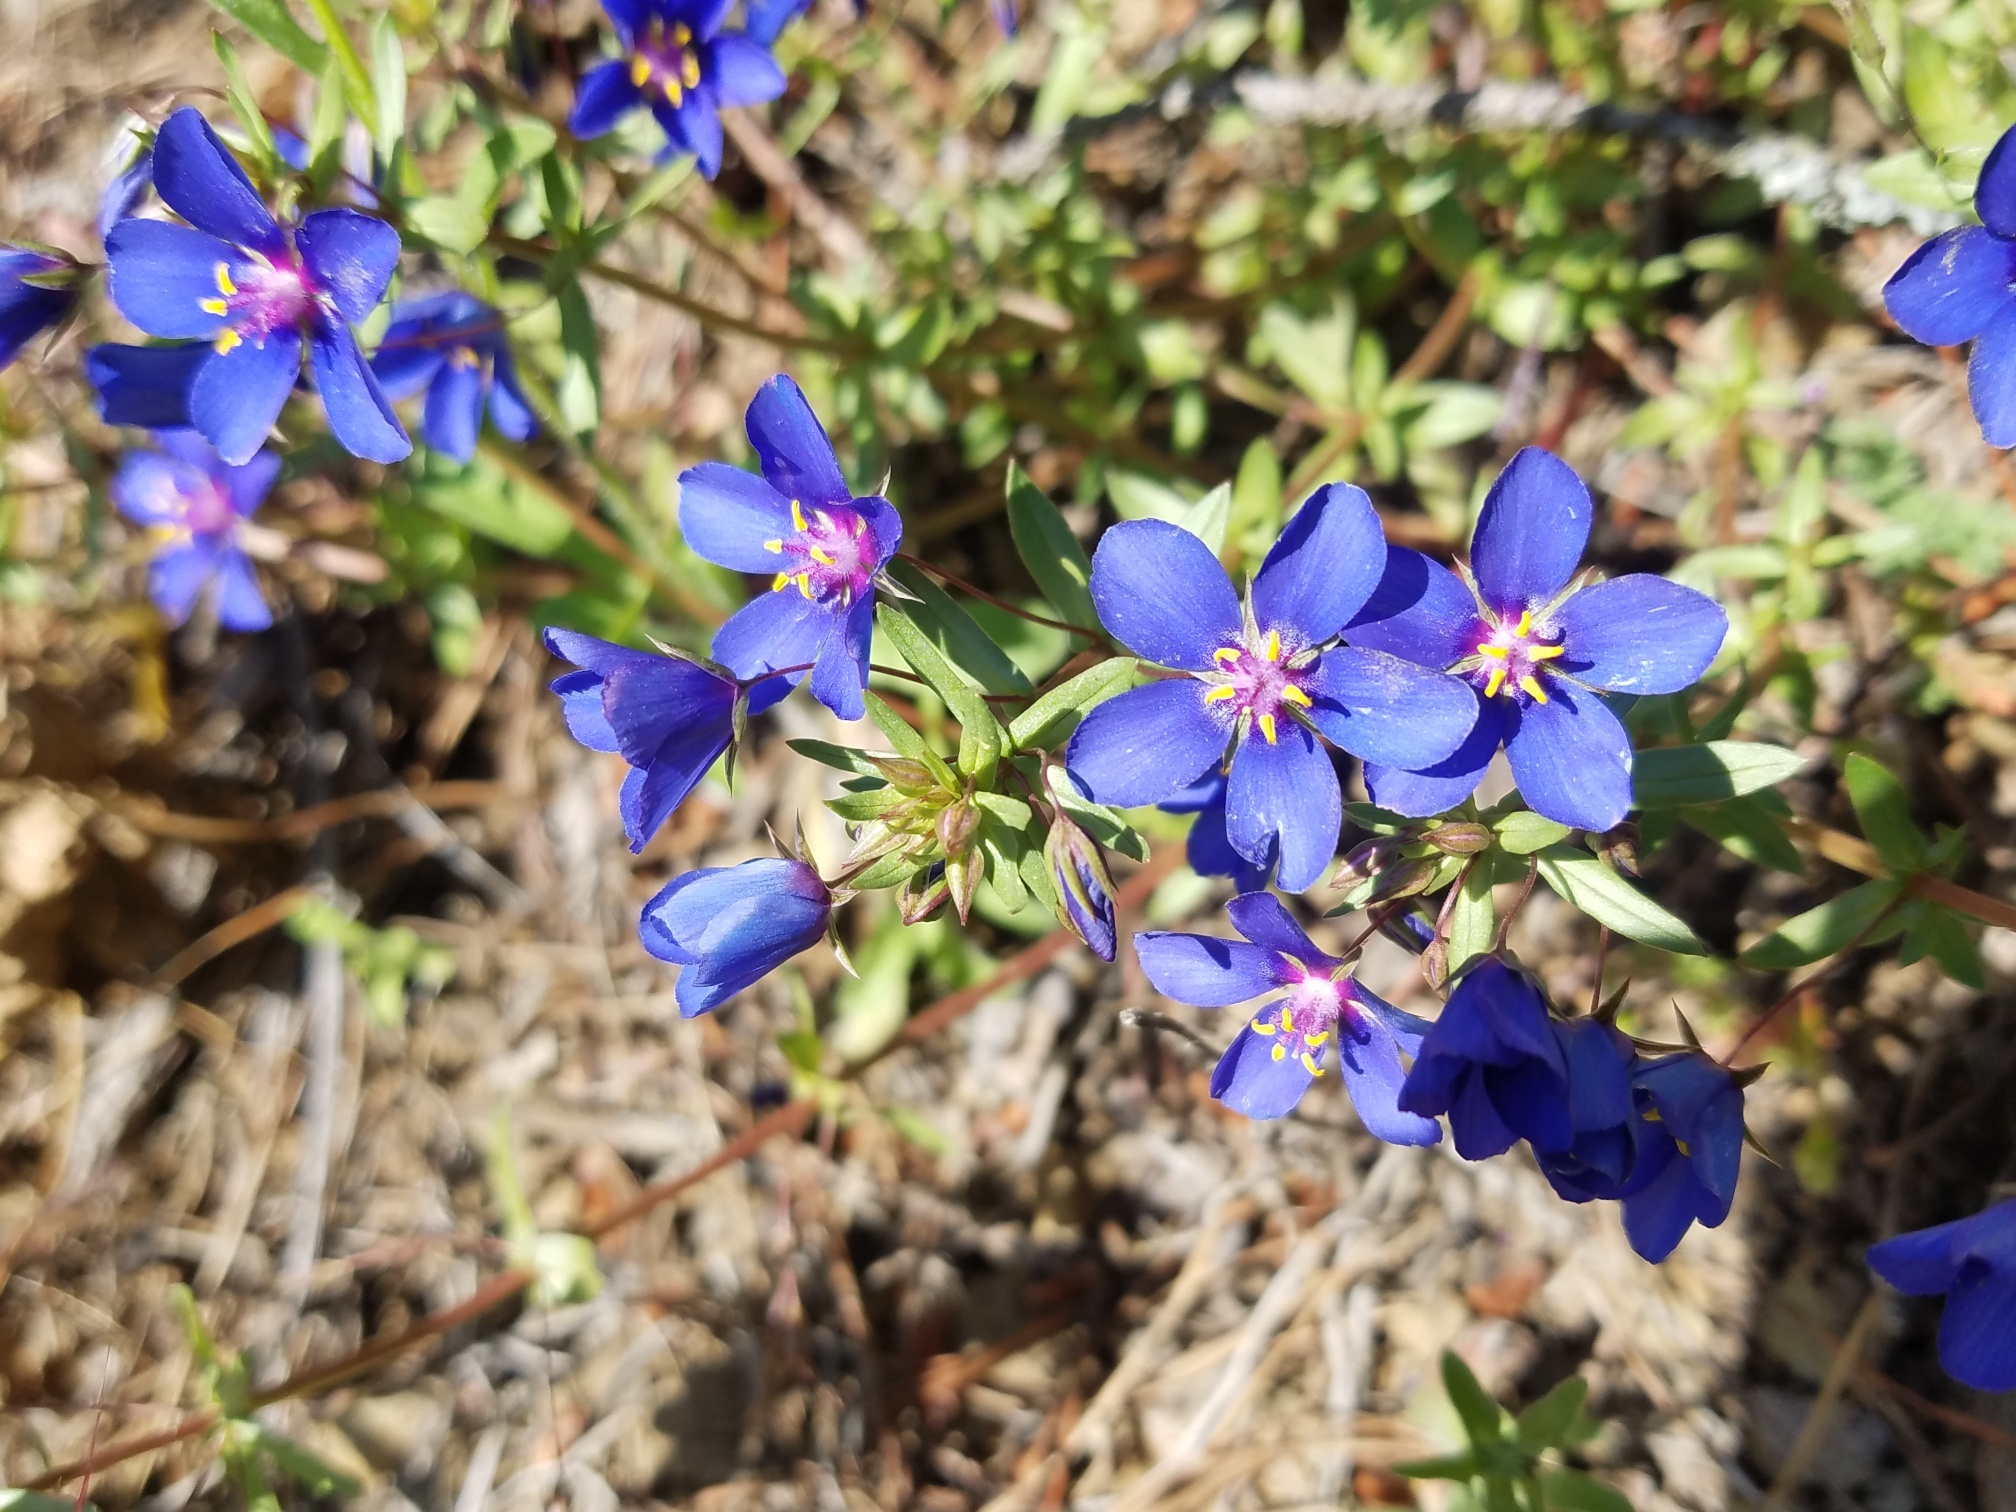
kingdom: Plantae
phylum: Tracheophyta
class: Magnoliopsida
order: Ericales
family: Primulaceae
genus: Lysimachia
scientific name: Lysimachia monelli
